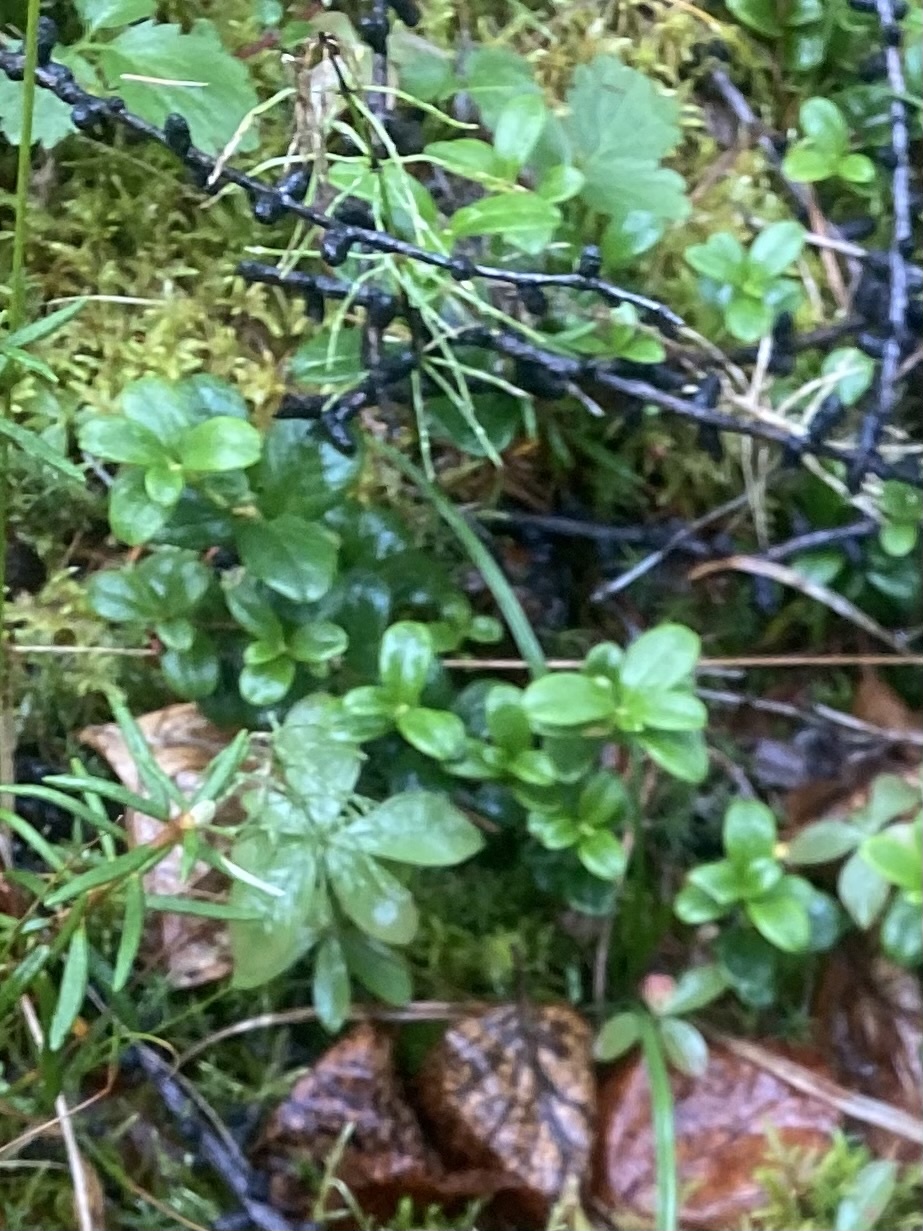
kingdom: Plantae
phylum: Tracheophyta
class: Magnoliopsida
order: Ericales
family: Ericaceae
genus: Vaccinium
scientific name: Vaccinium vitis-idaea
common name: Cowberry
